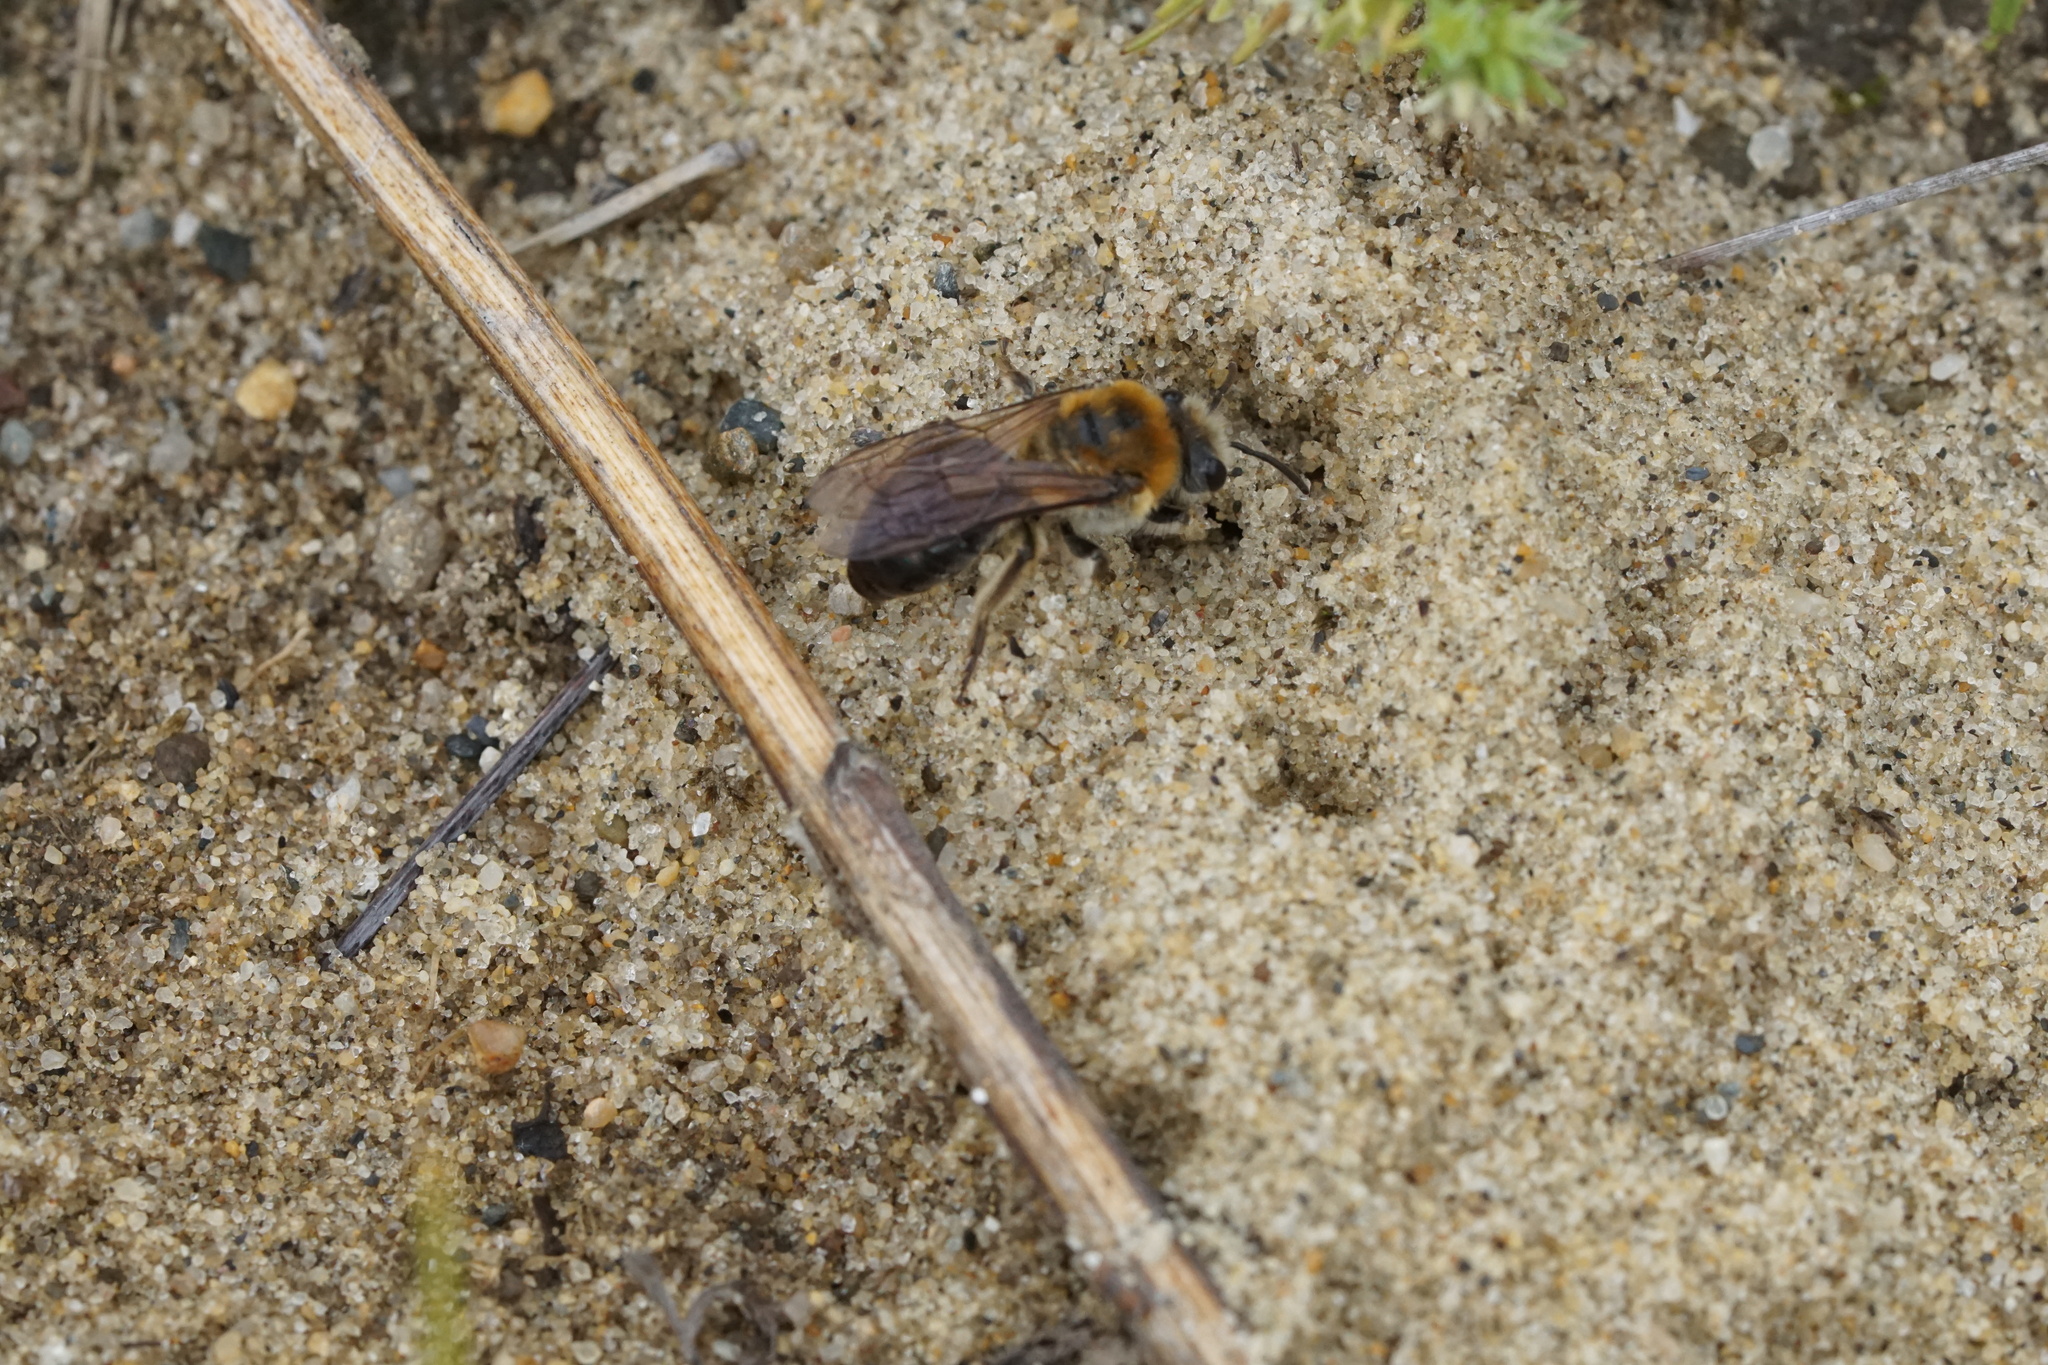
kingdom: Animalia
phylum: Arthropoda
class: Insecta
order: Hymenoptera
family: Colletidae
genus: Colletes
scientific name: Colletes thoracicus
